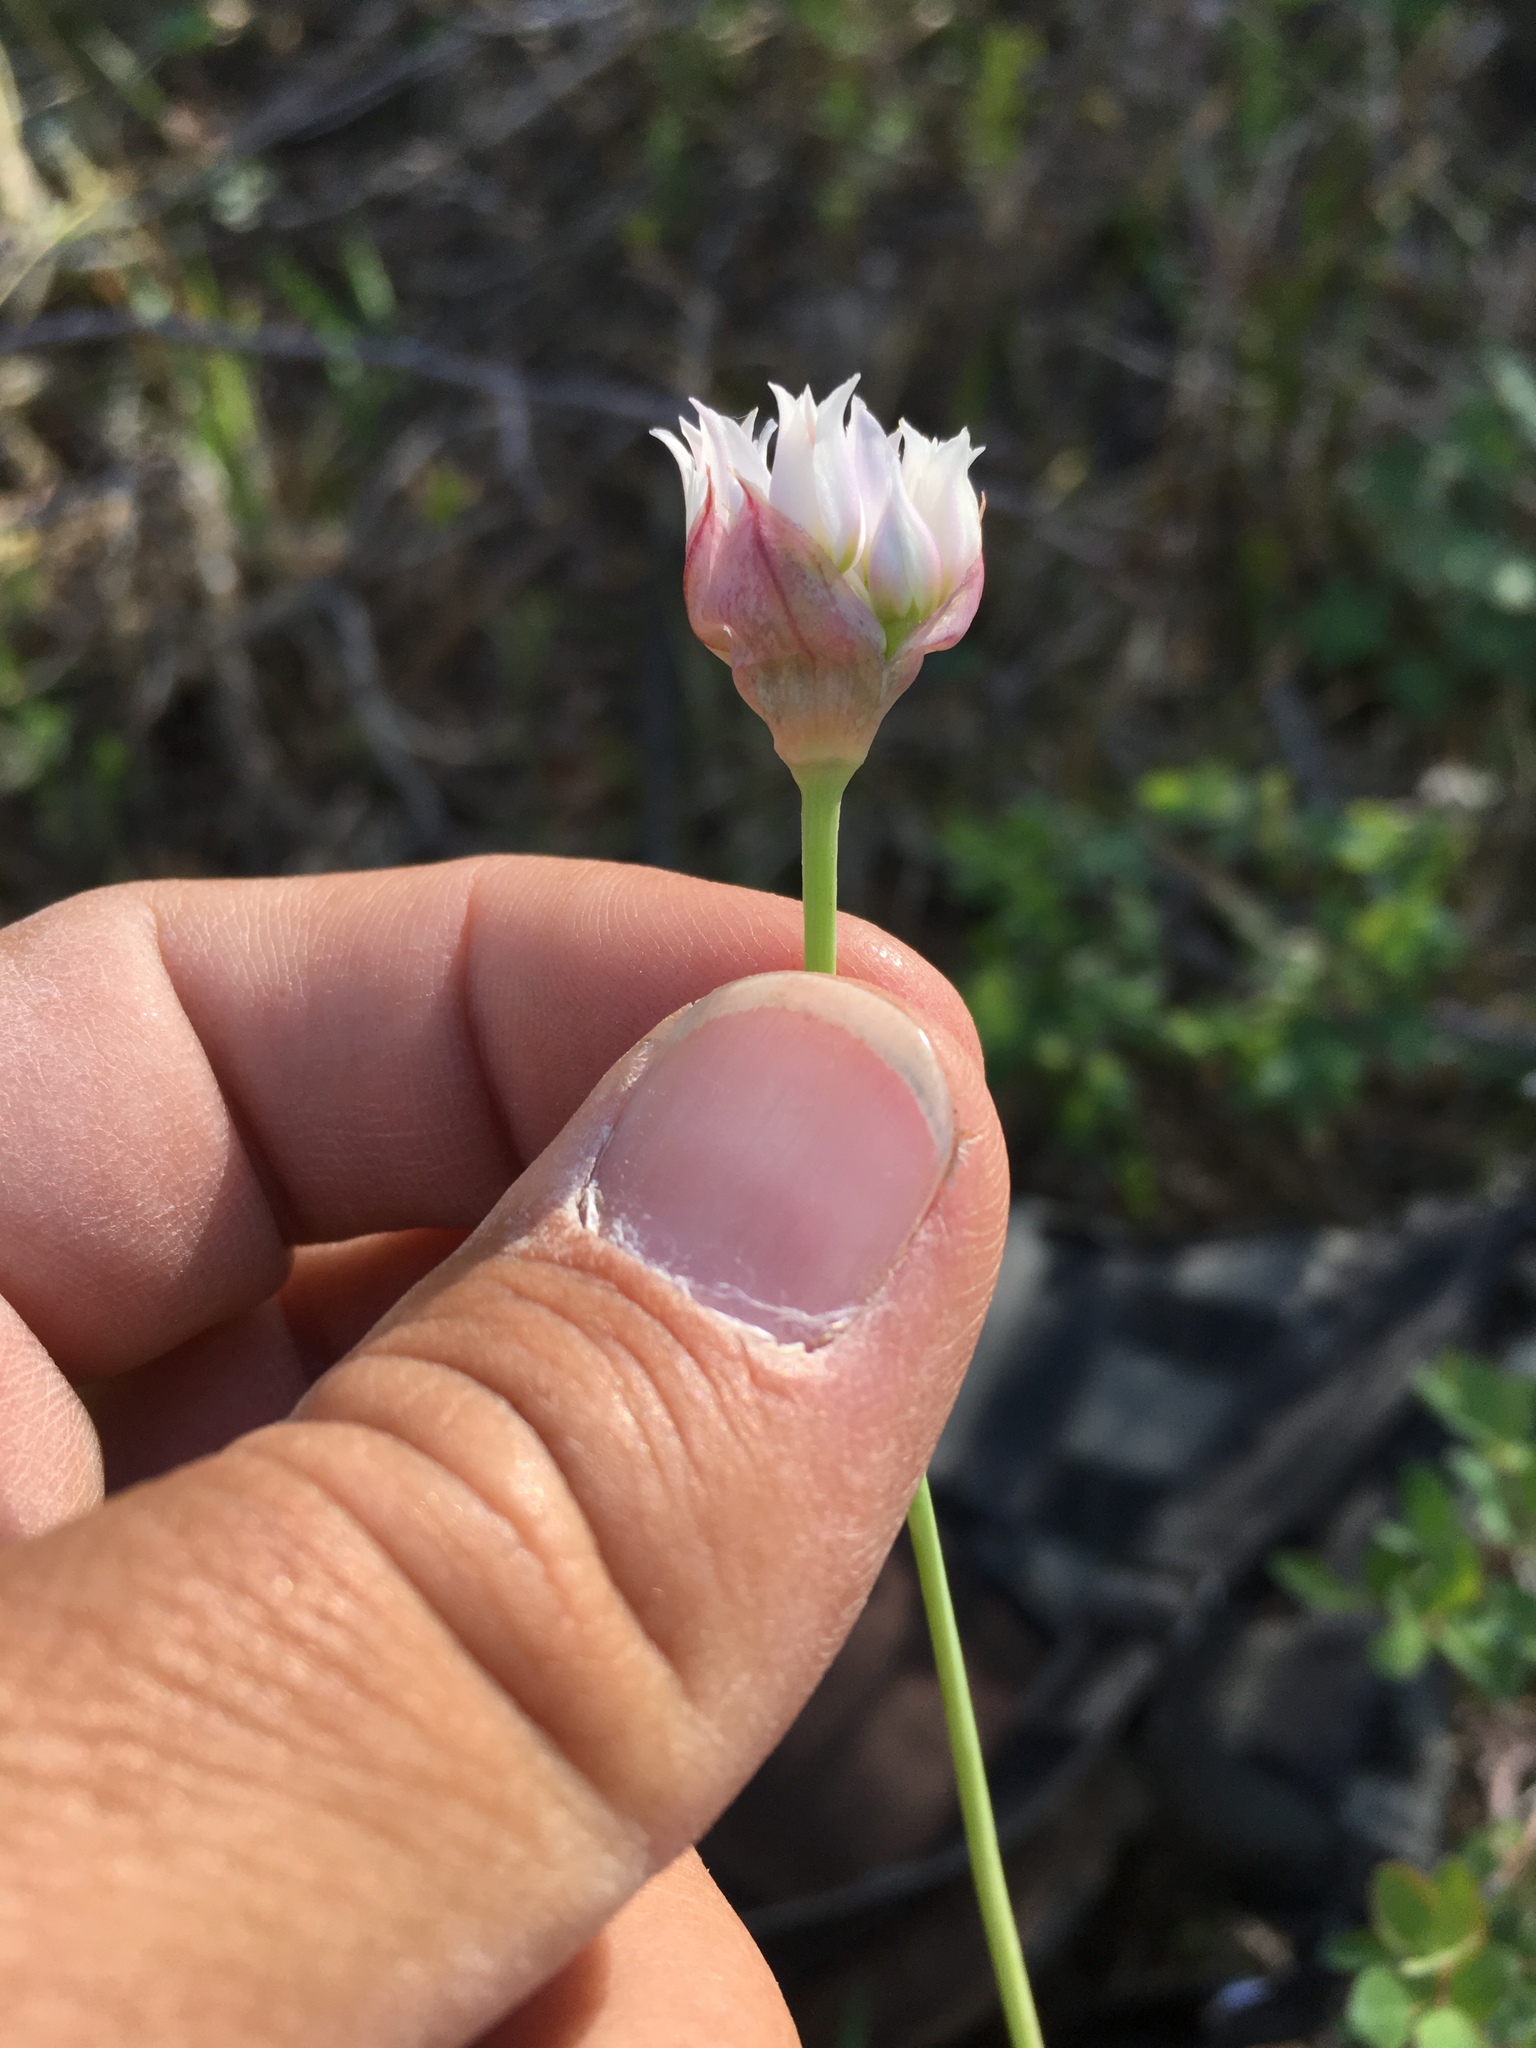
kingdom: Plantae
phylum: Tracheophyta
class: Liliopsida
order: Asparagales
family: Amaryllidaceae
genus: Allium
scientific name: Allium geyeri
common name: Geyer's onion
